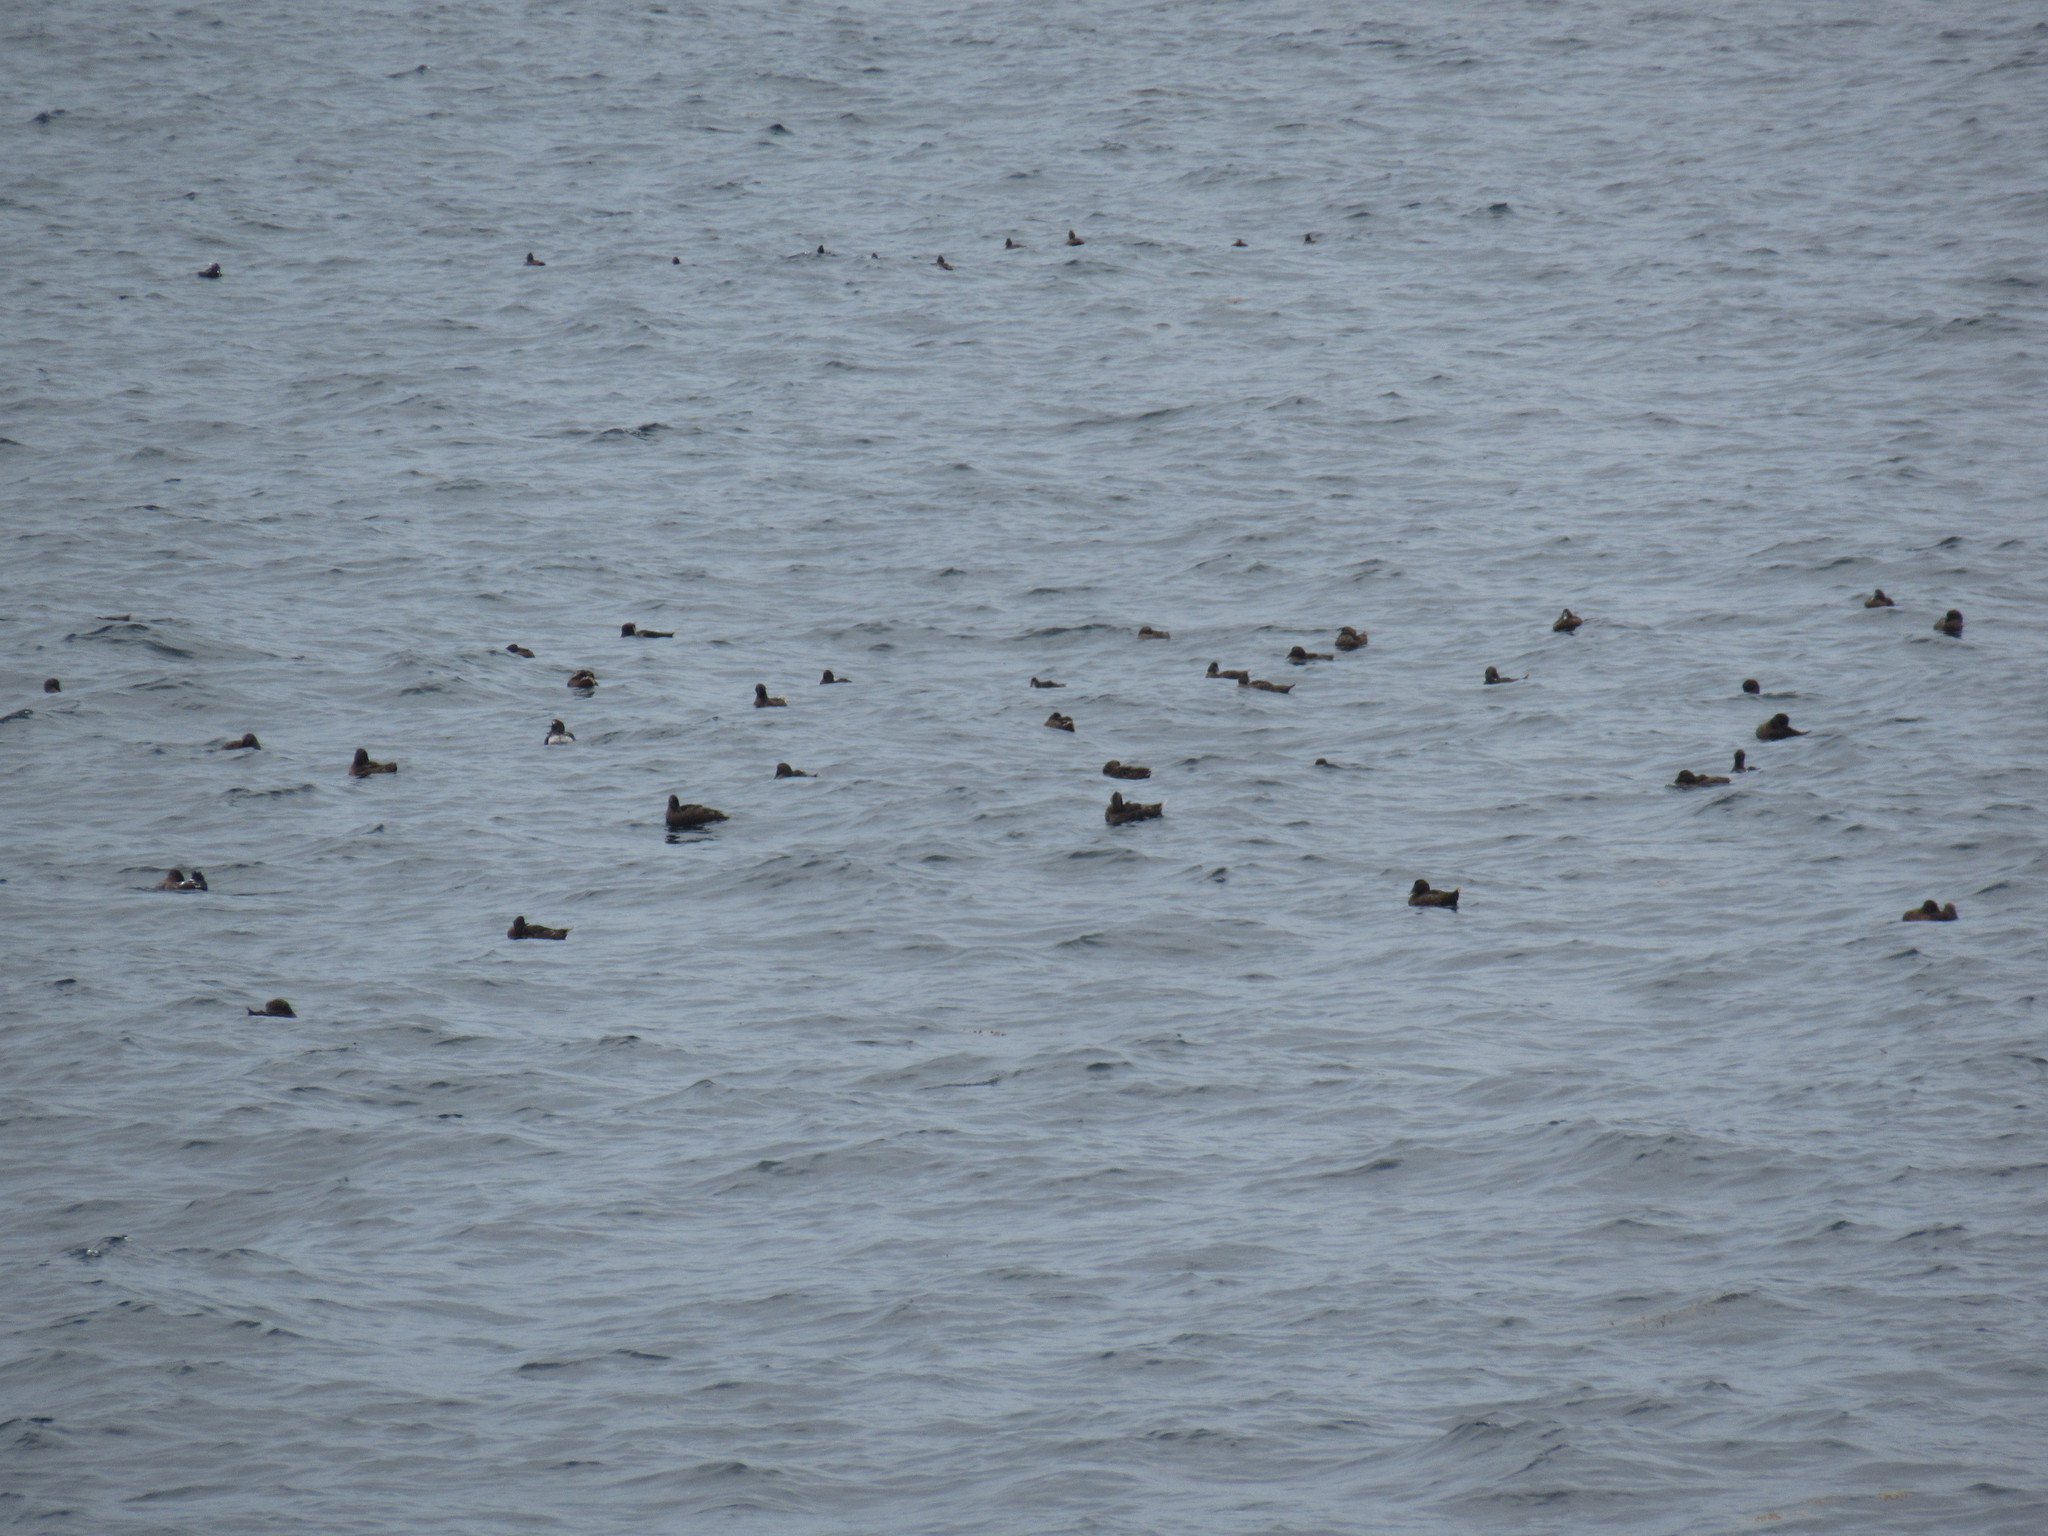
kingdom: Animalia
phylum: Chordata
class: Aves
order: Anseriformes
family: Anatidae
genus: Somateria
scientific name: Somateria mollissima
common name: Common eider
